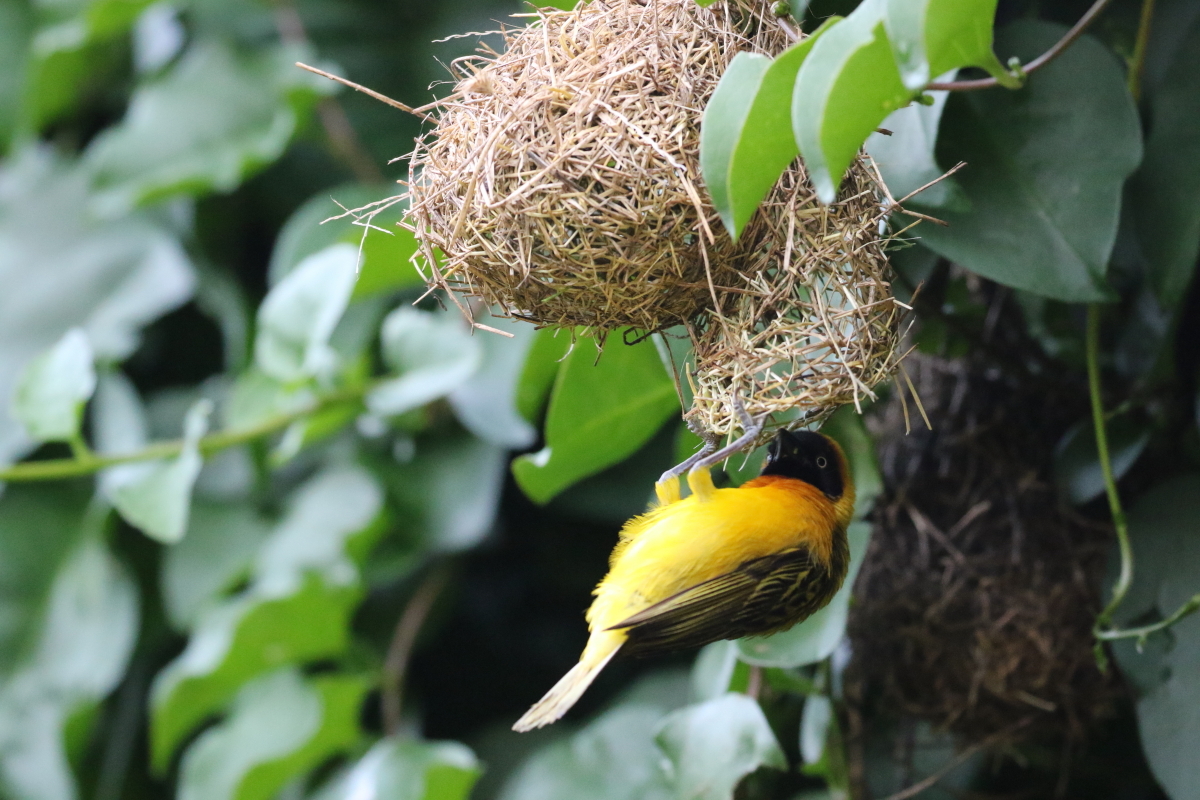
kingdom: Animalia
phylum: Chordata
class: Aves
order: Passeriformes
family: Ploceidae
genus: Ploceus
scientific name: Ploceus intermedius
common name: Lesser masked weaver
